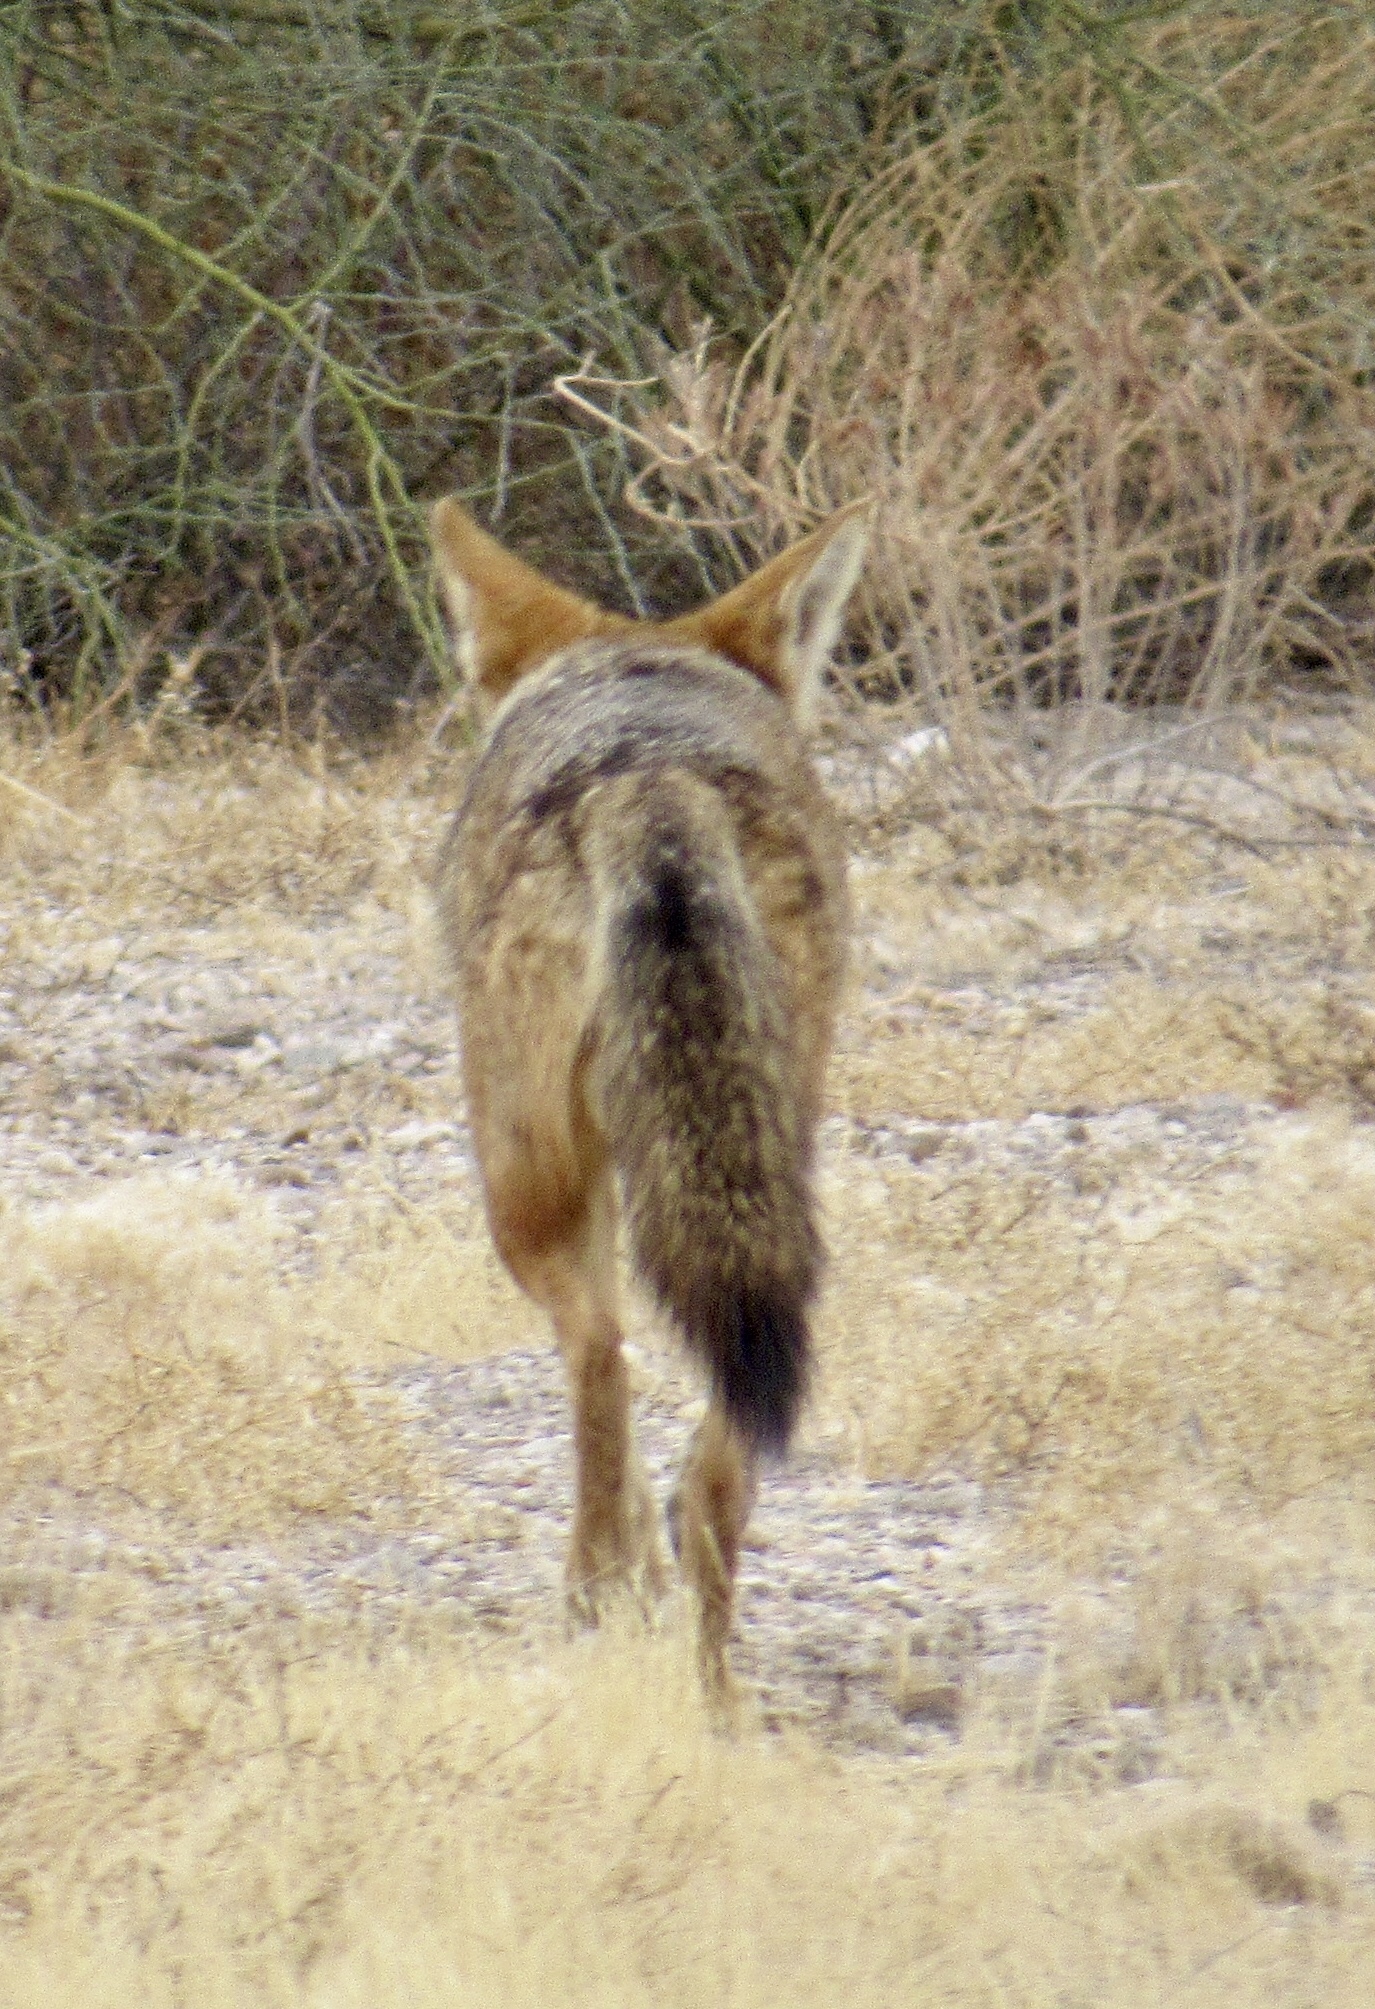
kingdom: Animalia
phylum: Chordata
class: Mammalia
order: Carnivora
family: Canidae
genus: Canis
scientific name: Canis latrans
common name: Coyote
